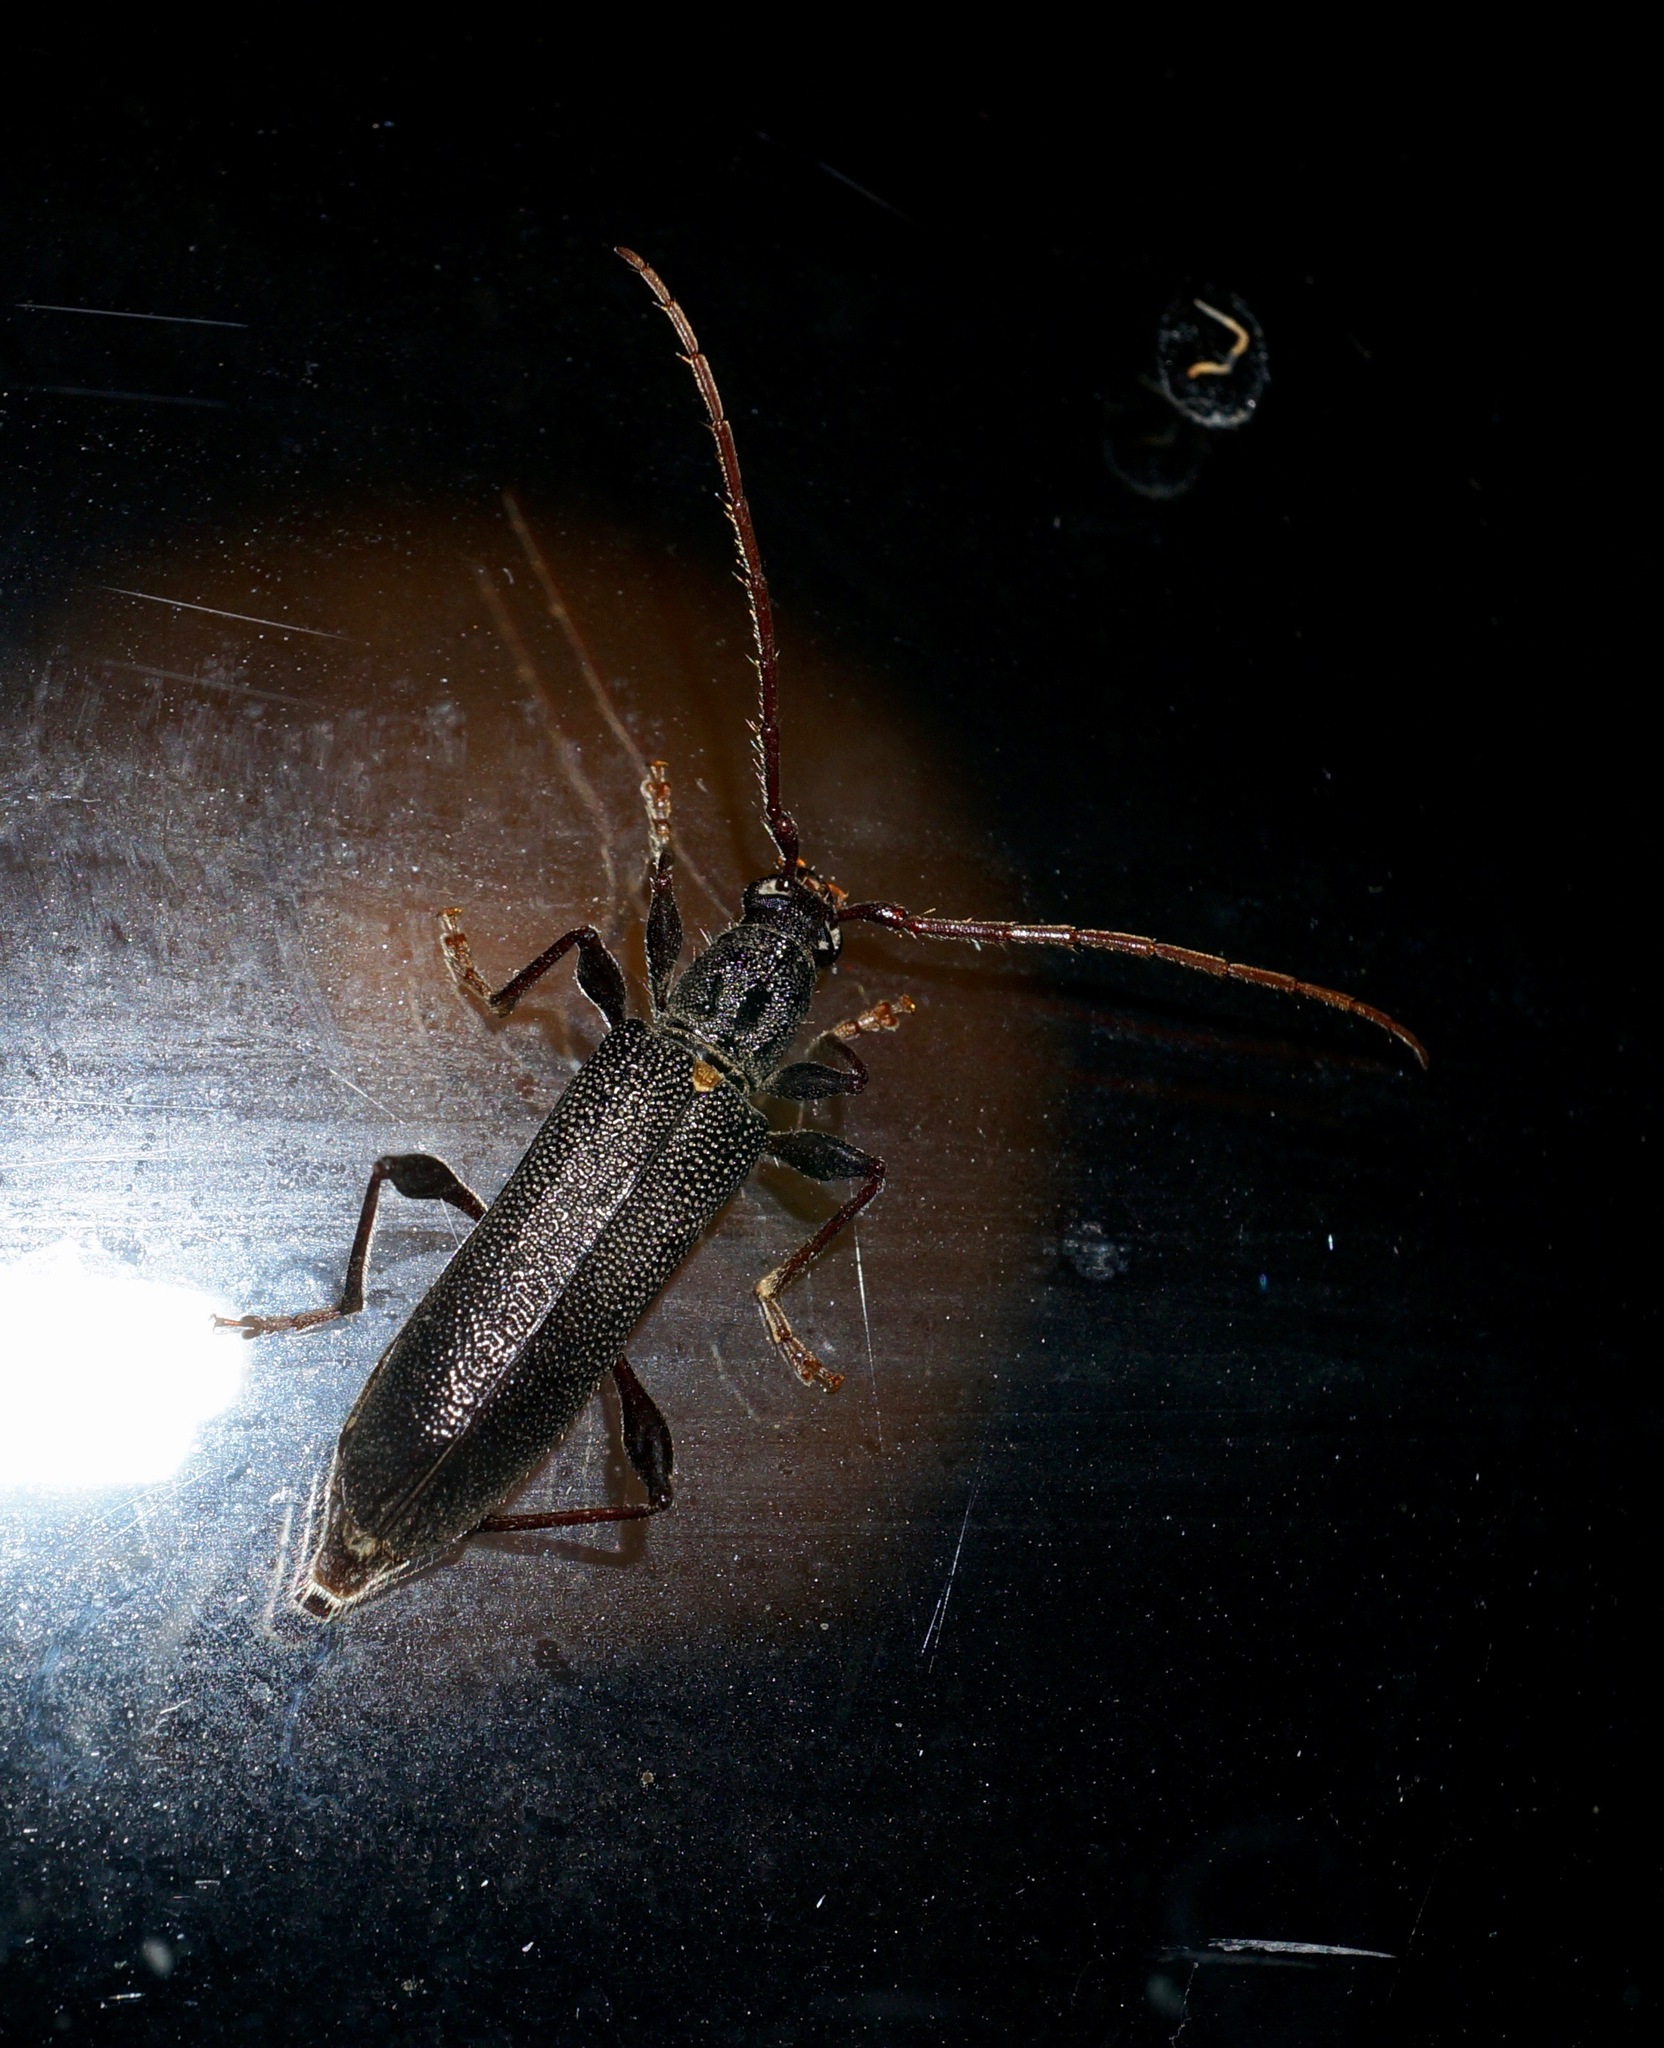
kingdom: Animalia
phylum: Arthropoda
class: Insecta
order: Coleoptera
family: Cerambycidae
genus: Callidiopis
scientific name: Callidiopis scutellaris
